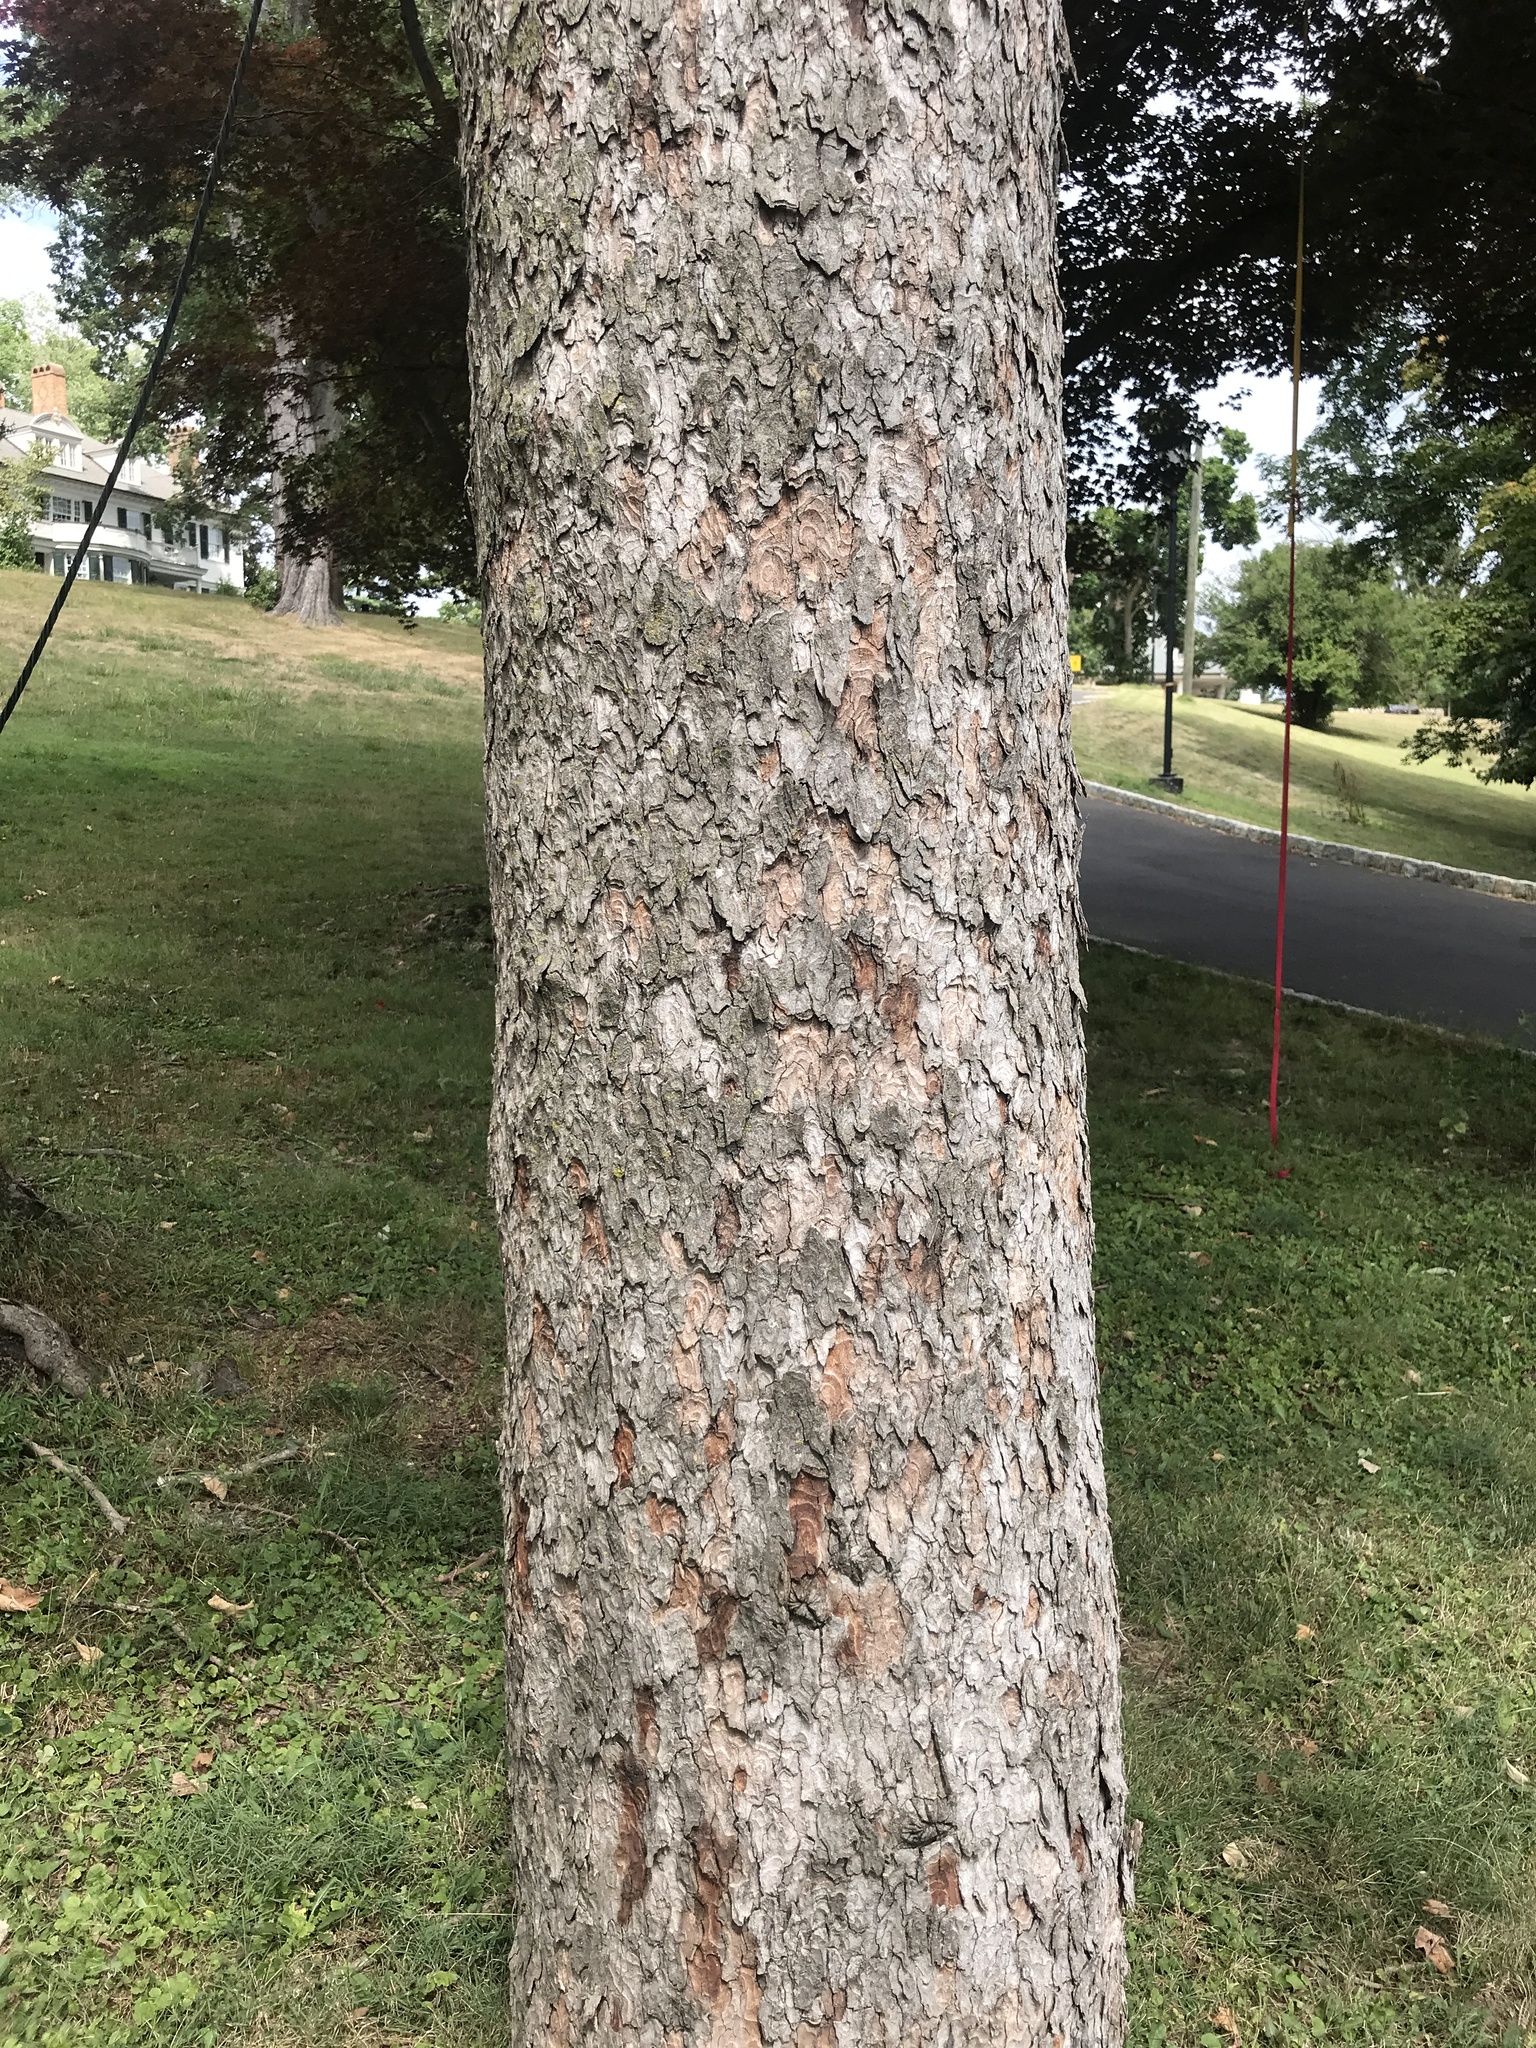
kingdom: Plantae
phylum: Tracheophyta
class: Magnoliopsida
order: Sapindales
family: Sapindaceae
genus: Acer
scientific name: Acer pseudoplatanus
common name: Sycamore
